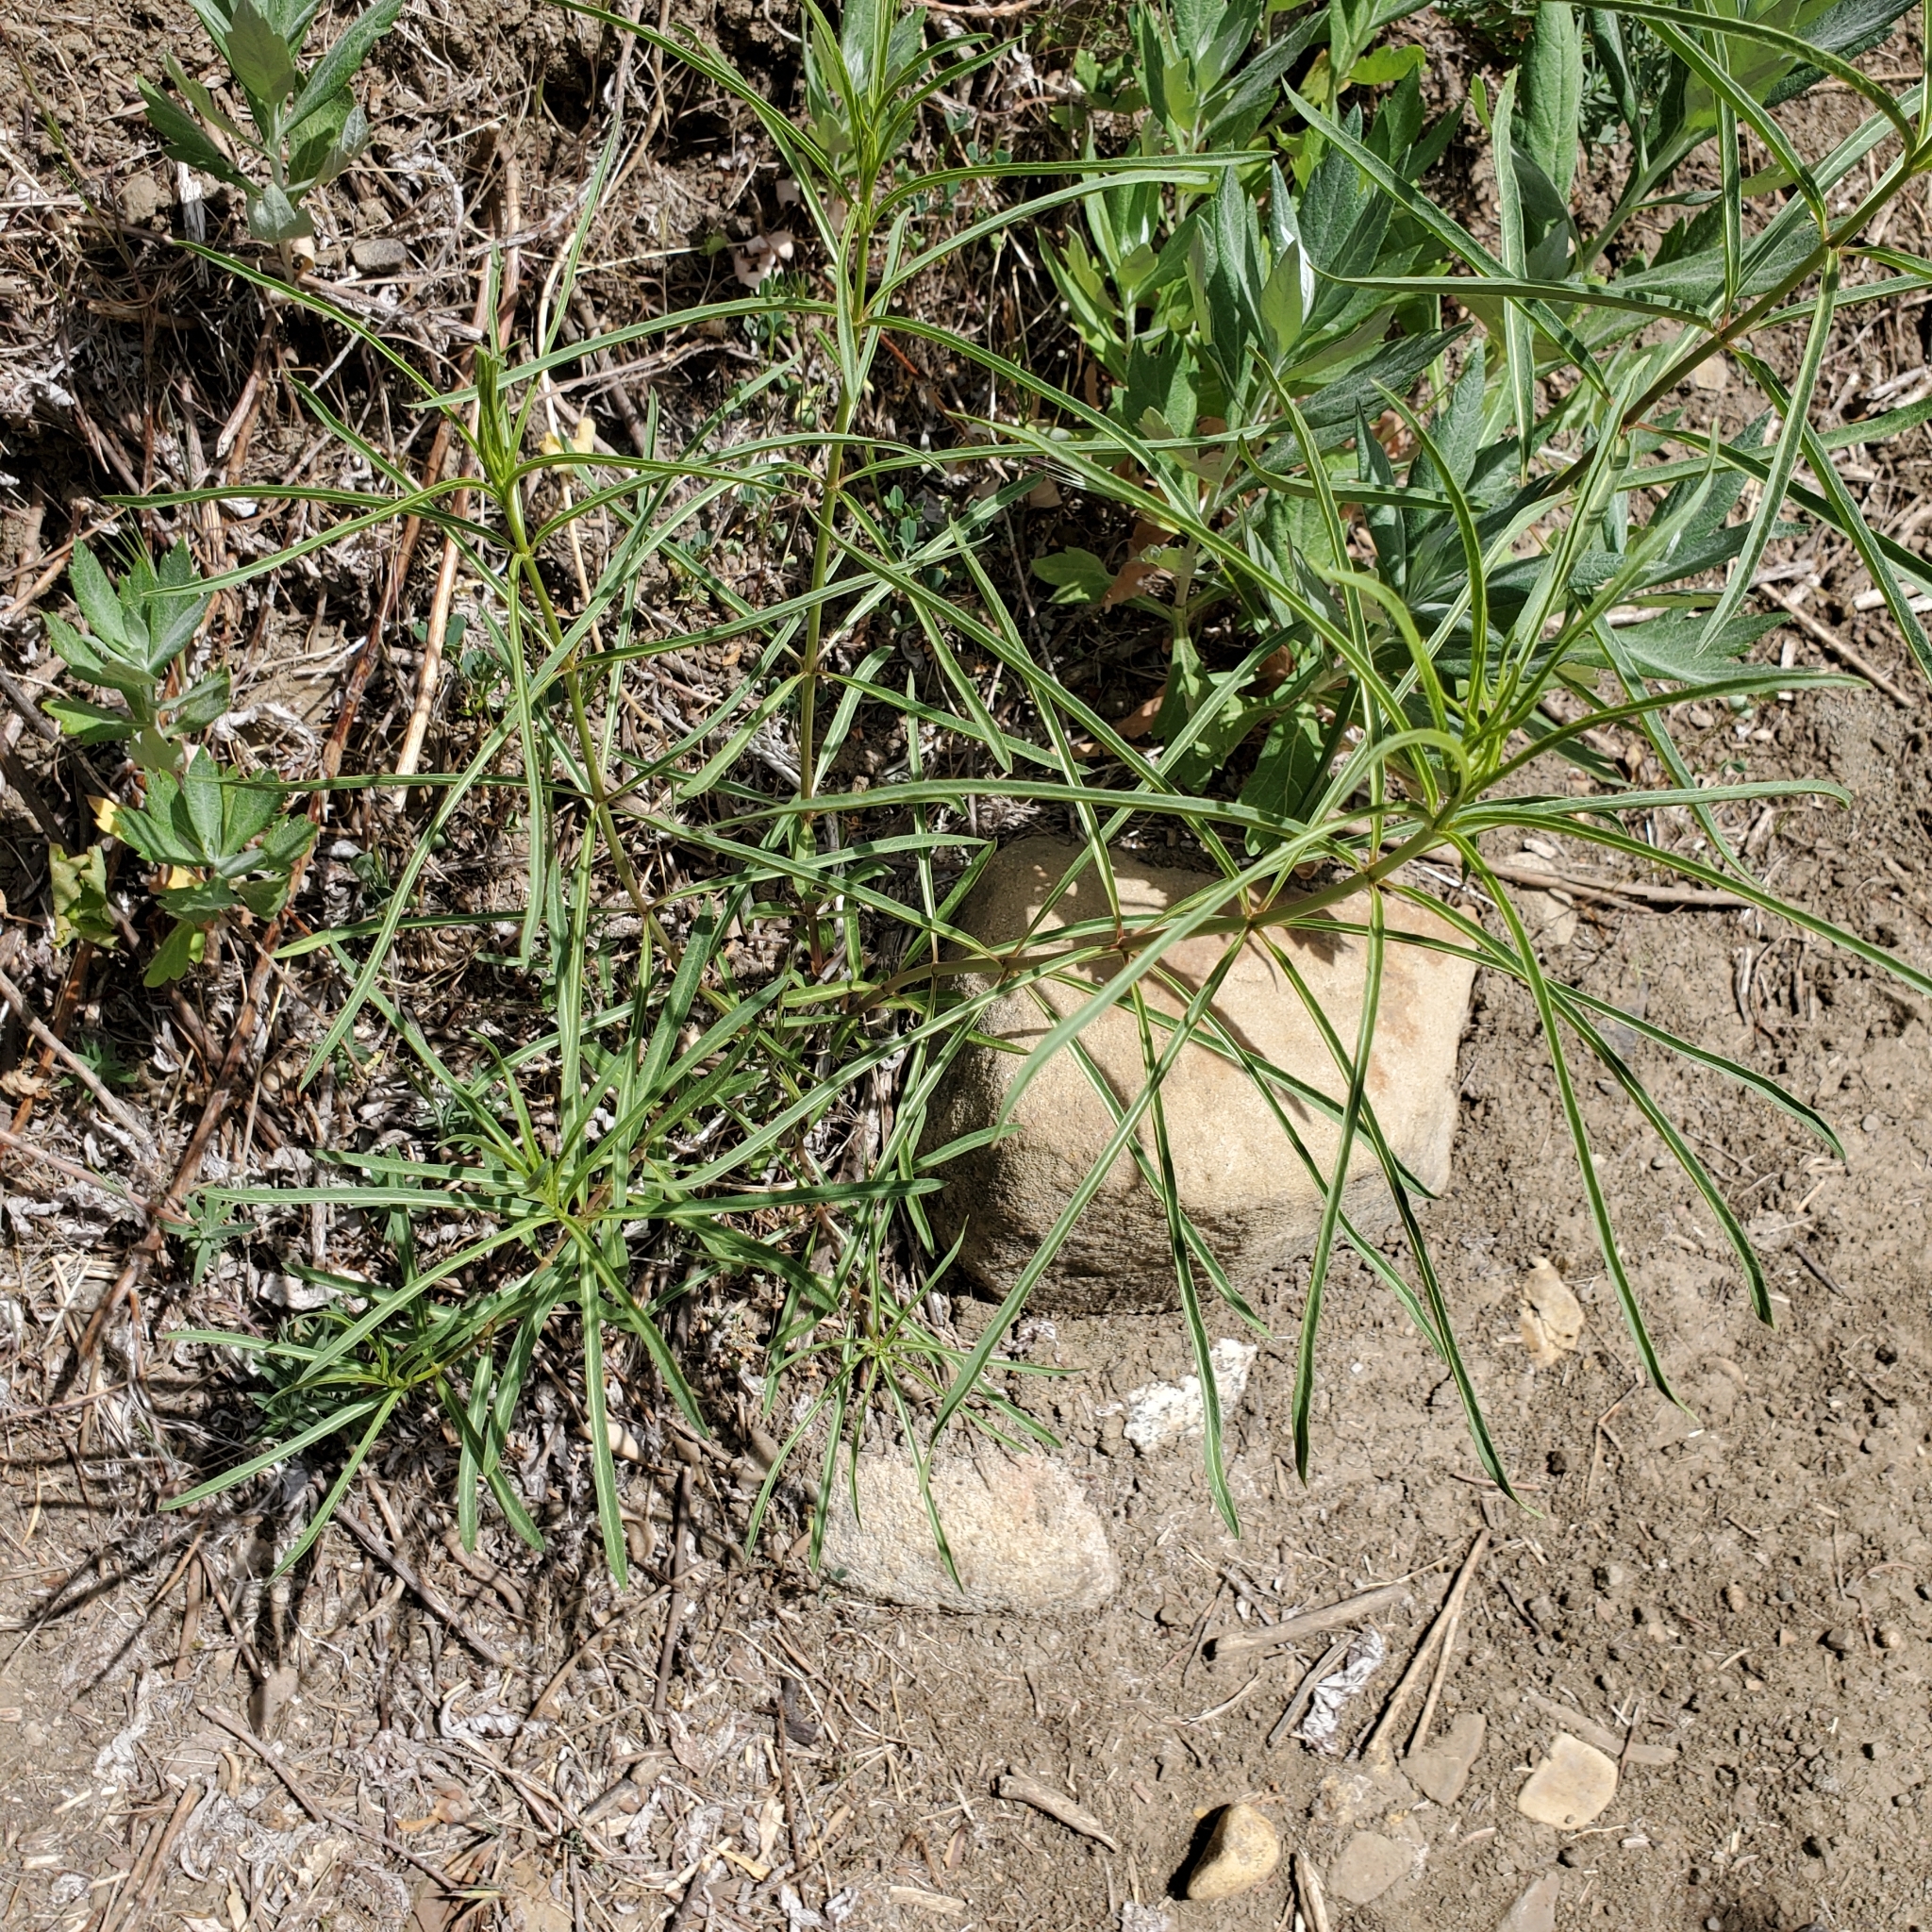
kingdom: Plantae
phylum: Tracheophyta
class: Magnoliopsida
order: Gentianales
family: Apocynaceae
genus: Asclepias
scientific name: Asclepias fascicularis
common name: Mexican milkweed
